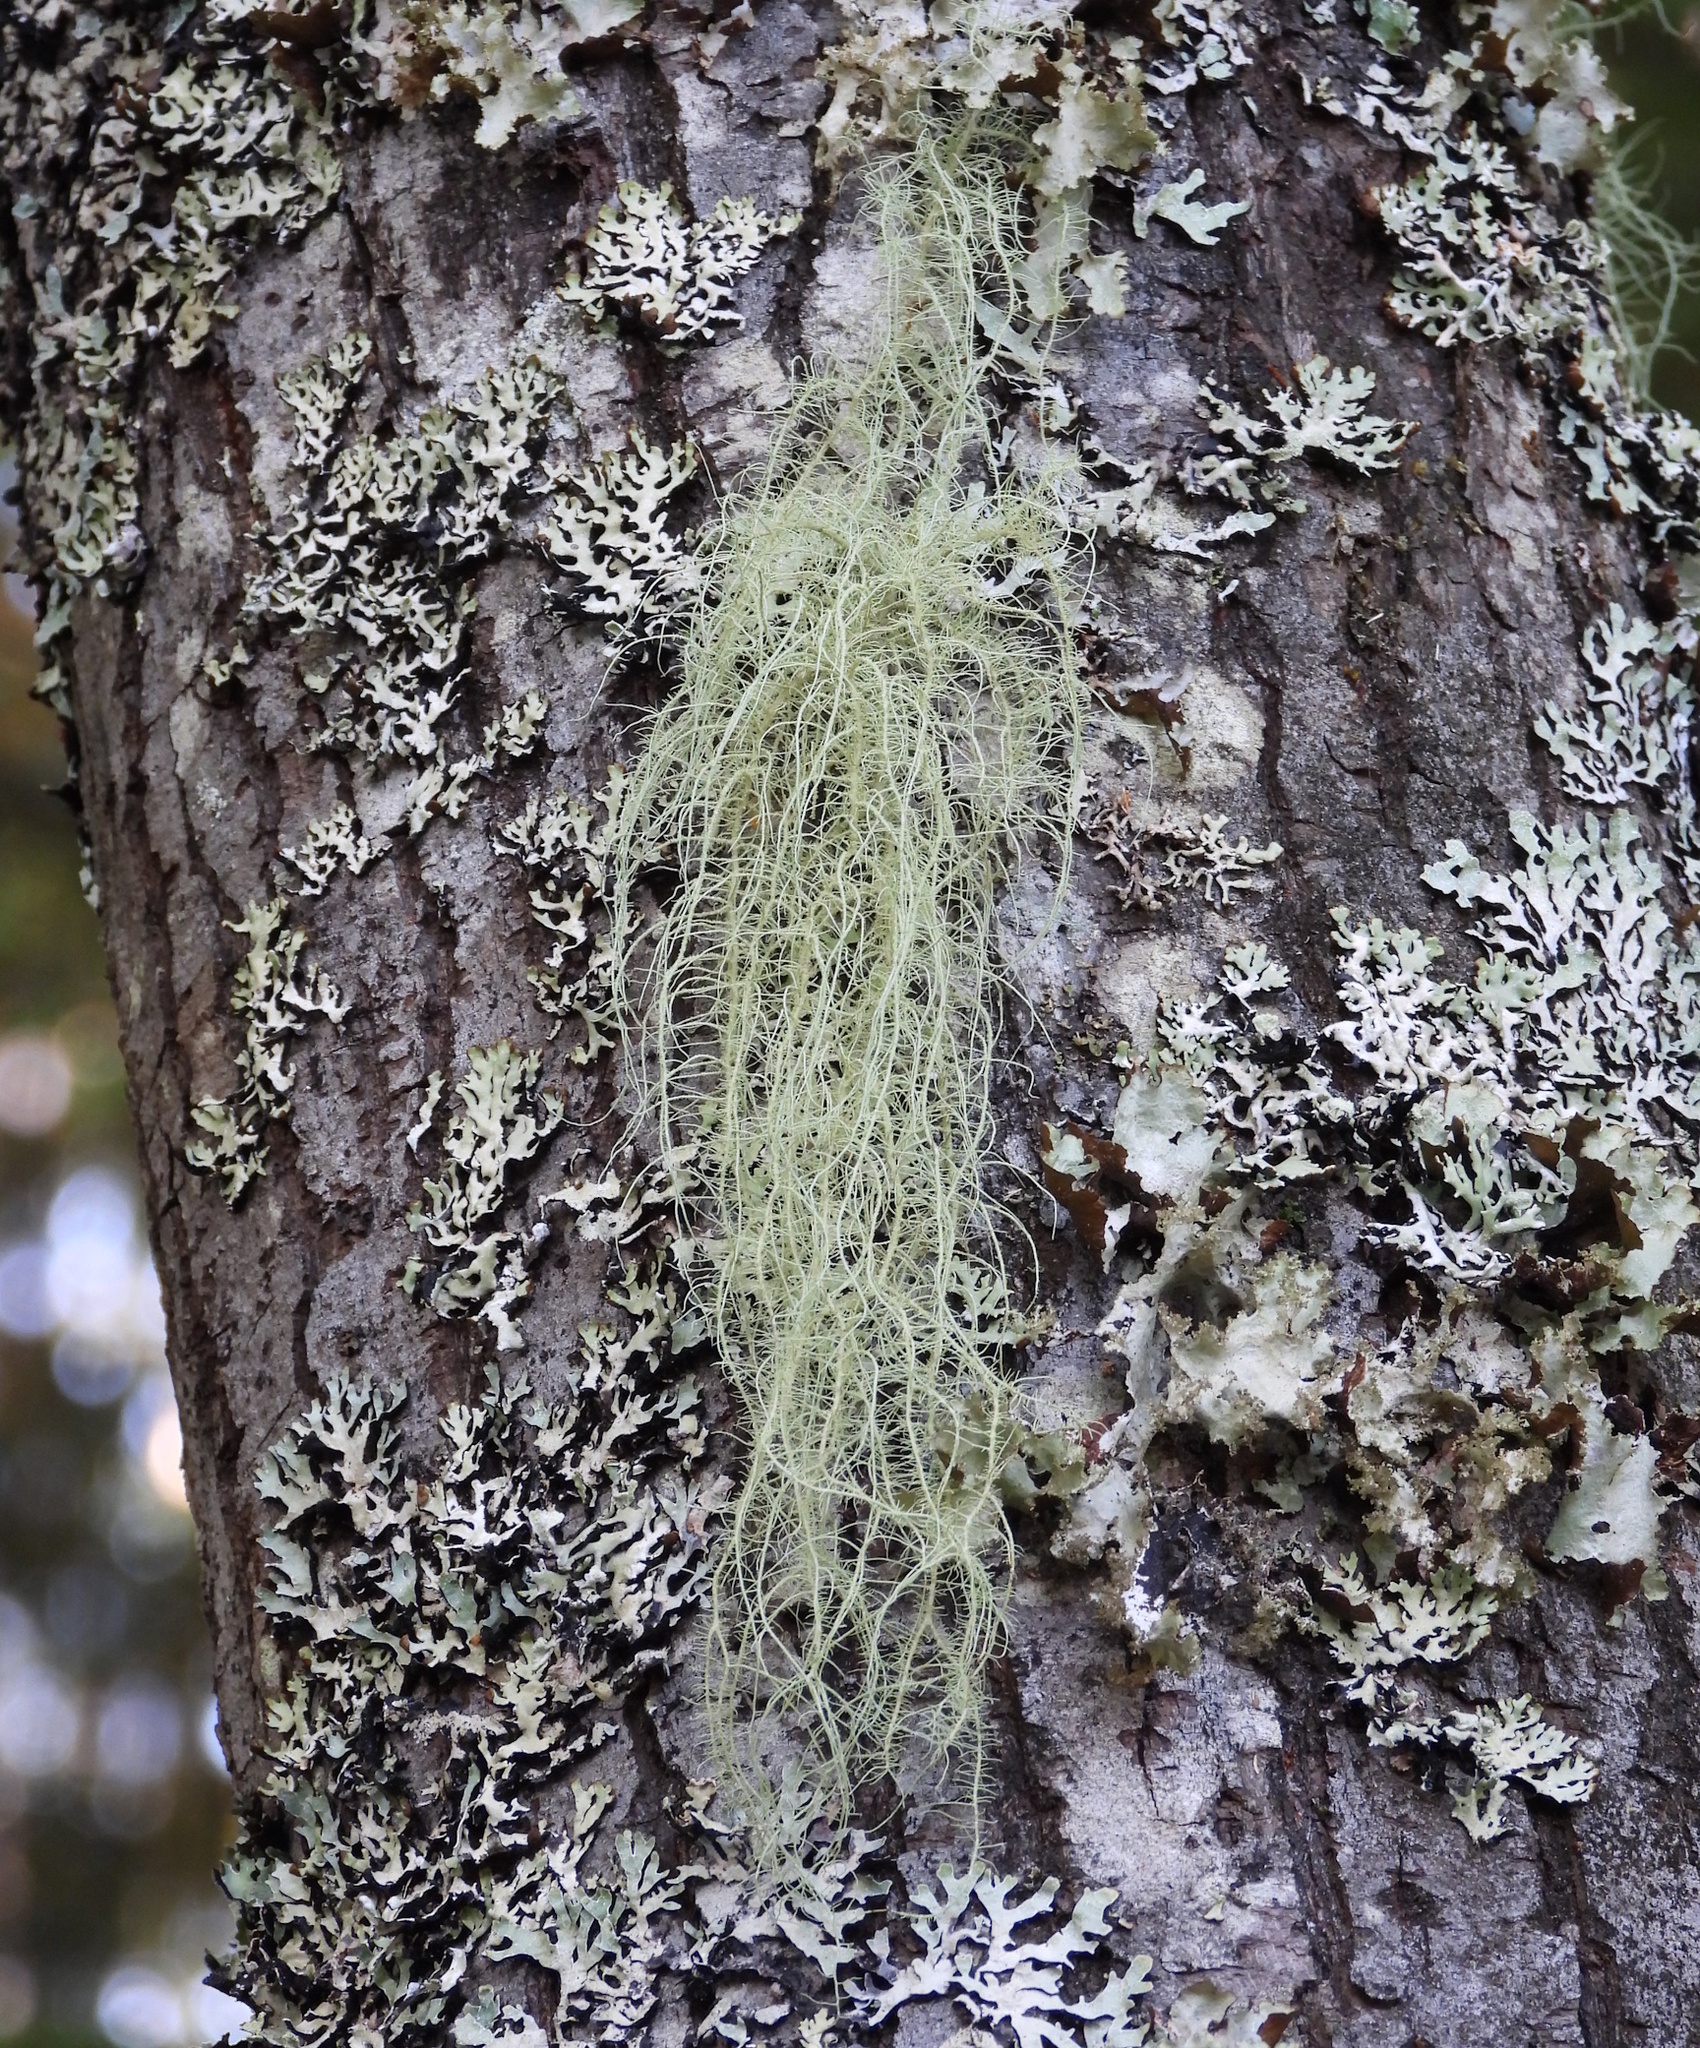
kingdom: Fungi
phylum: Ascomycota
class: Lecanoromycetes
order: Lecanorales
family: Parmeliaceae
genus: Usnea
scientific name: Usnea dasopoga
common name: Fishbone beard lichen
